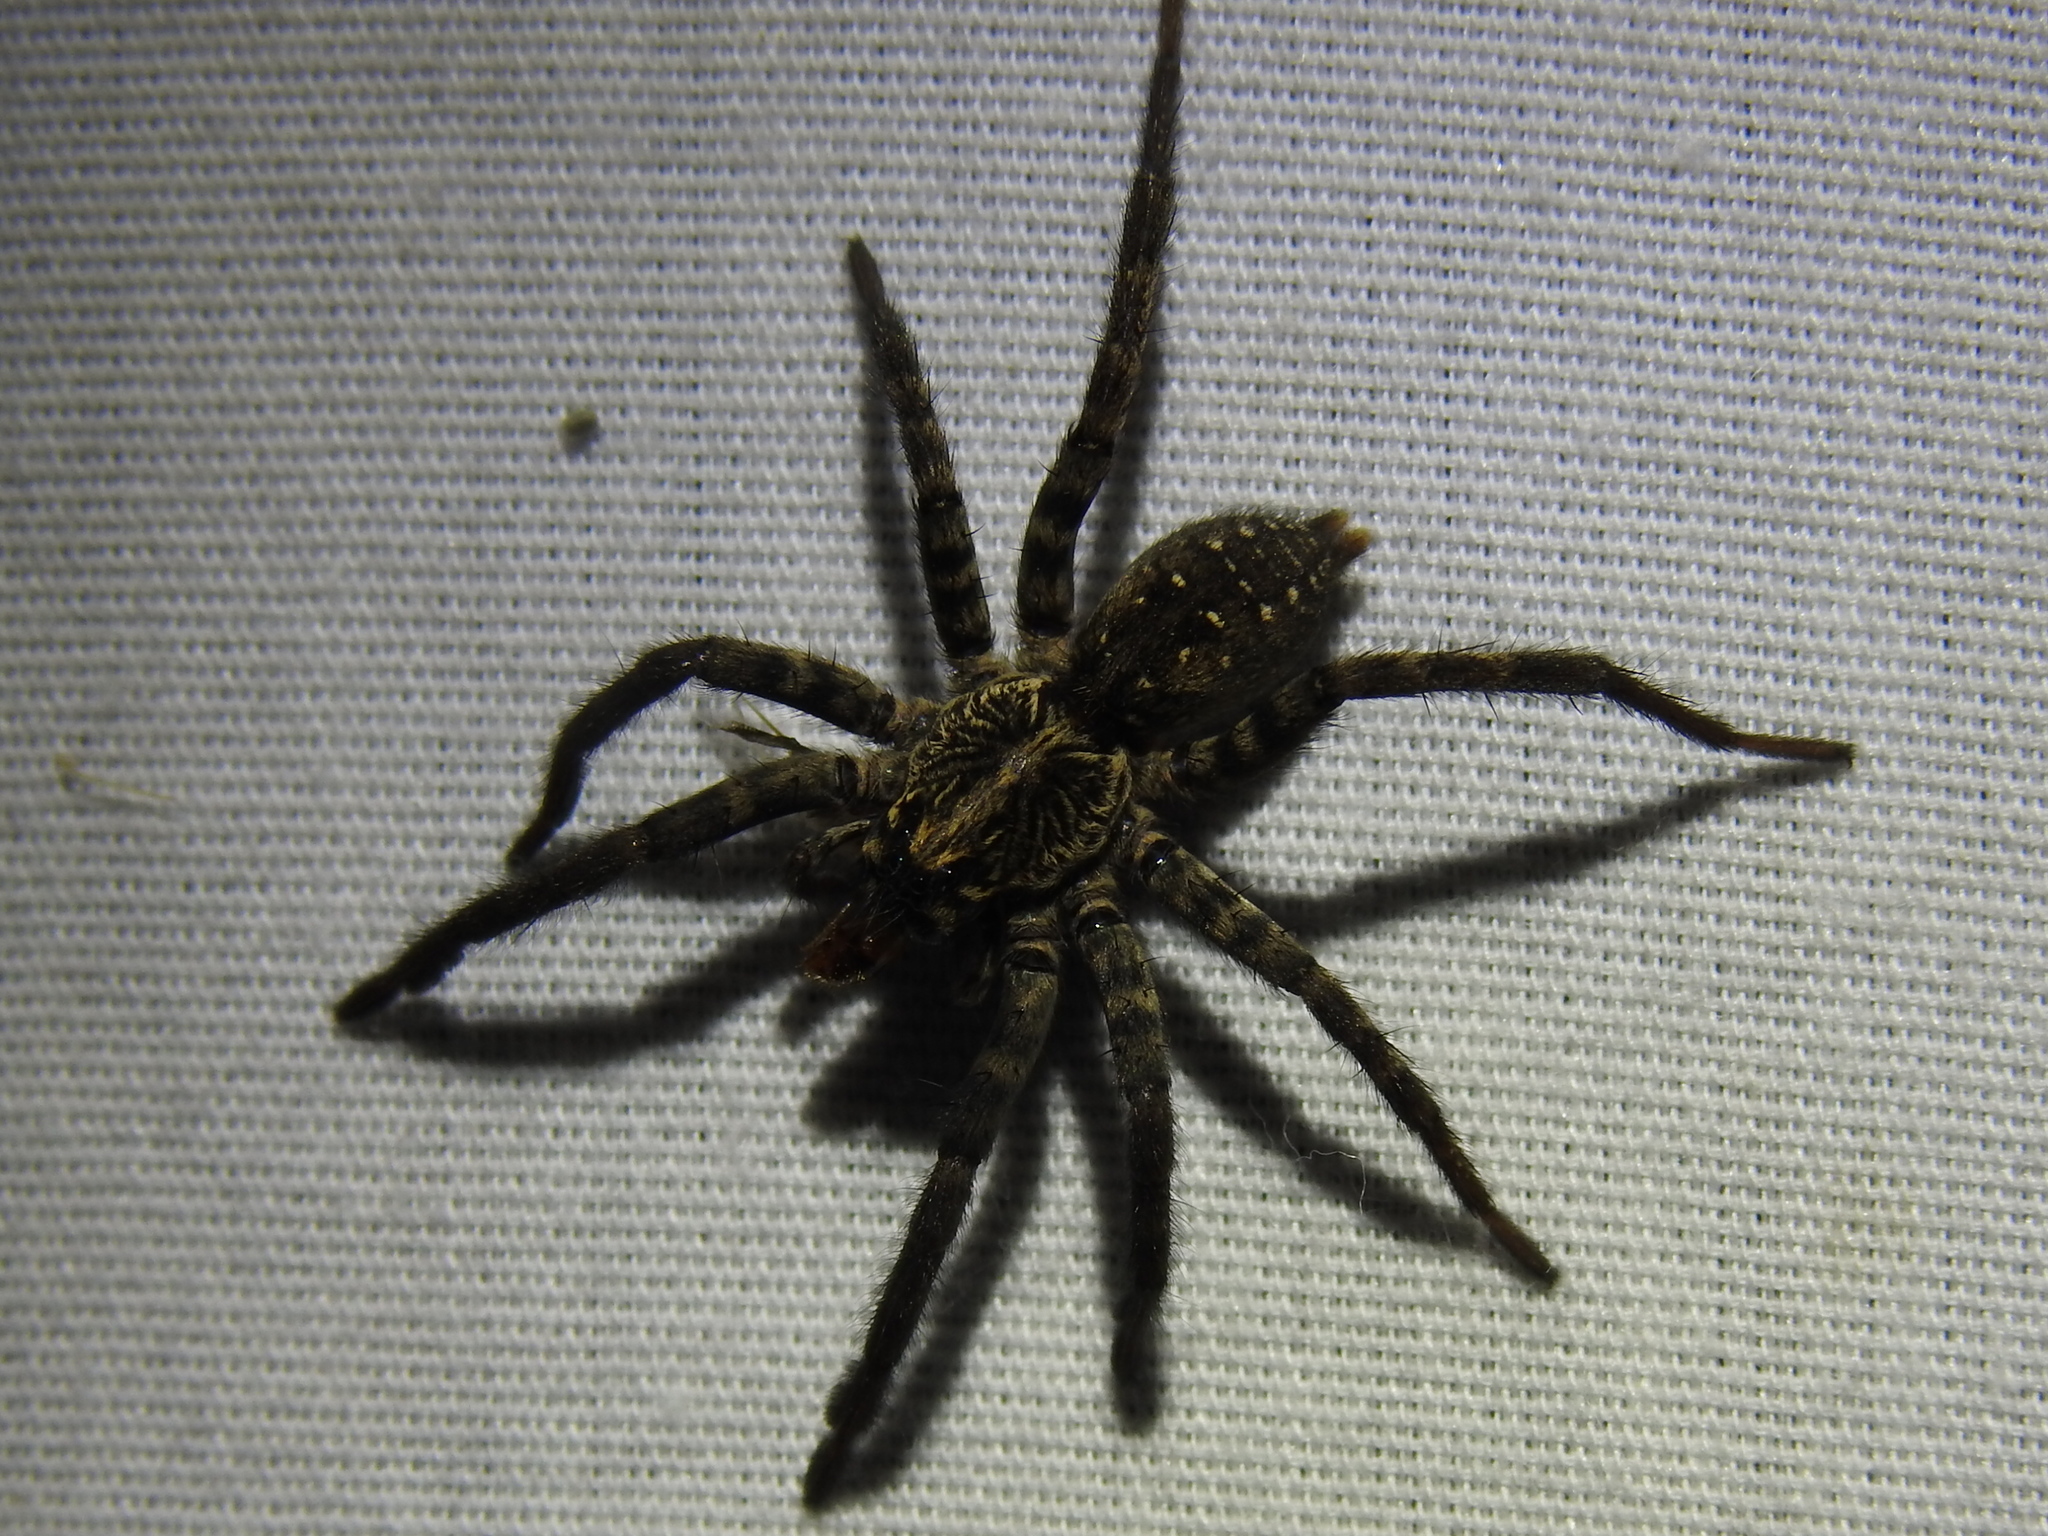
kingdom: Animalia
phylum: Arthropoda
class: Arachnida
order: Araneae
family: Lycosidae
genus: Sosippus
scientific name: Sosippus texanus
